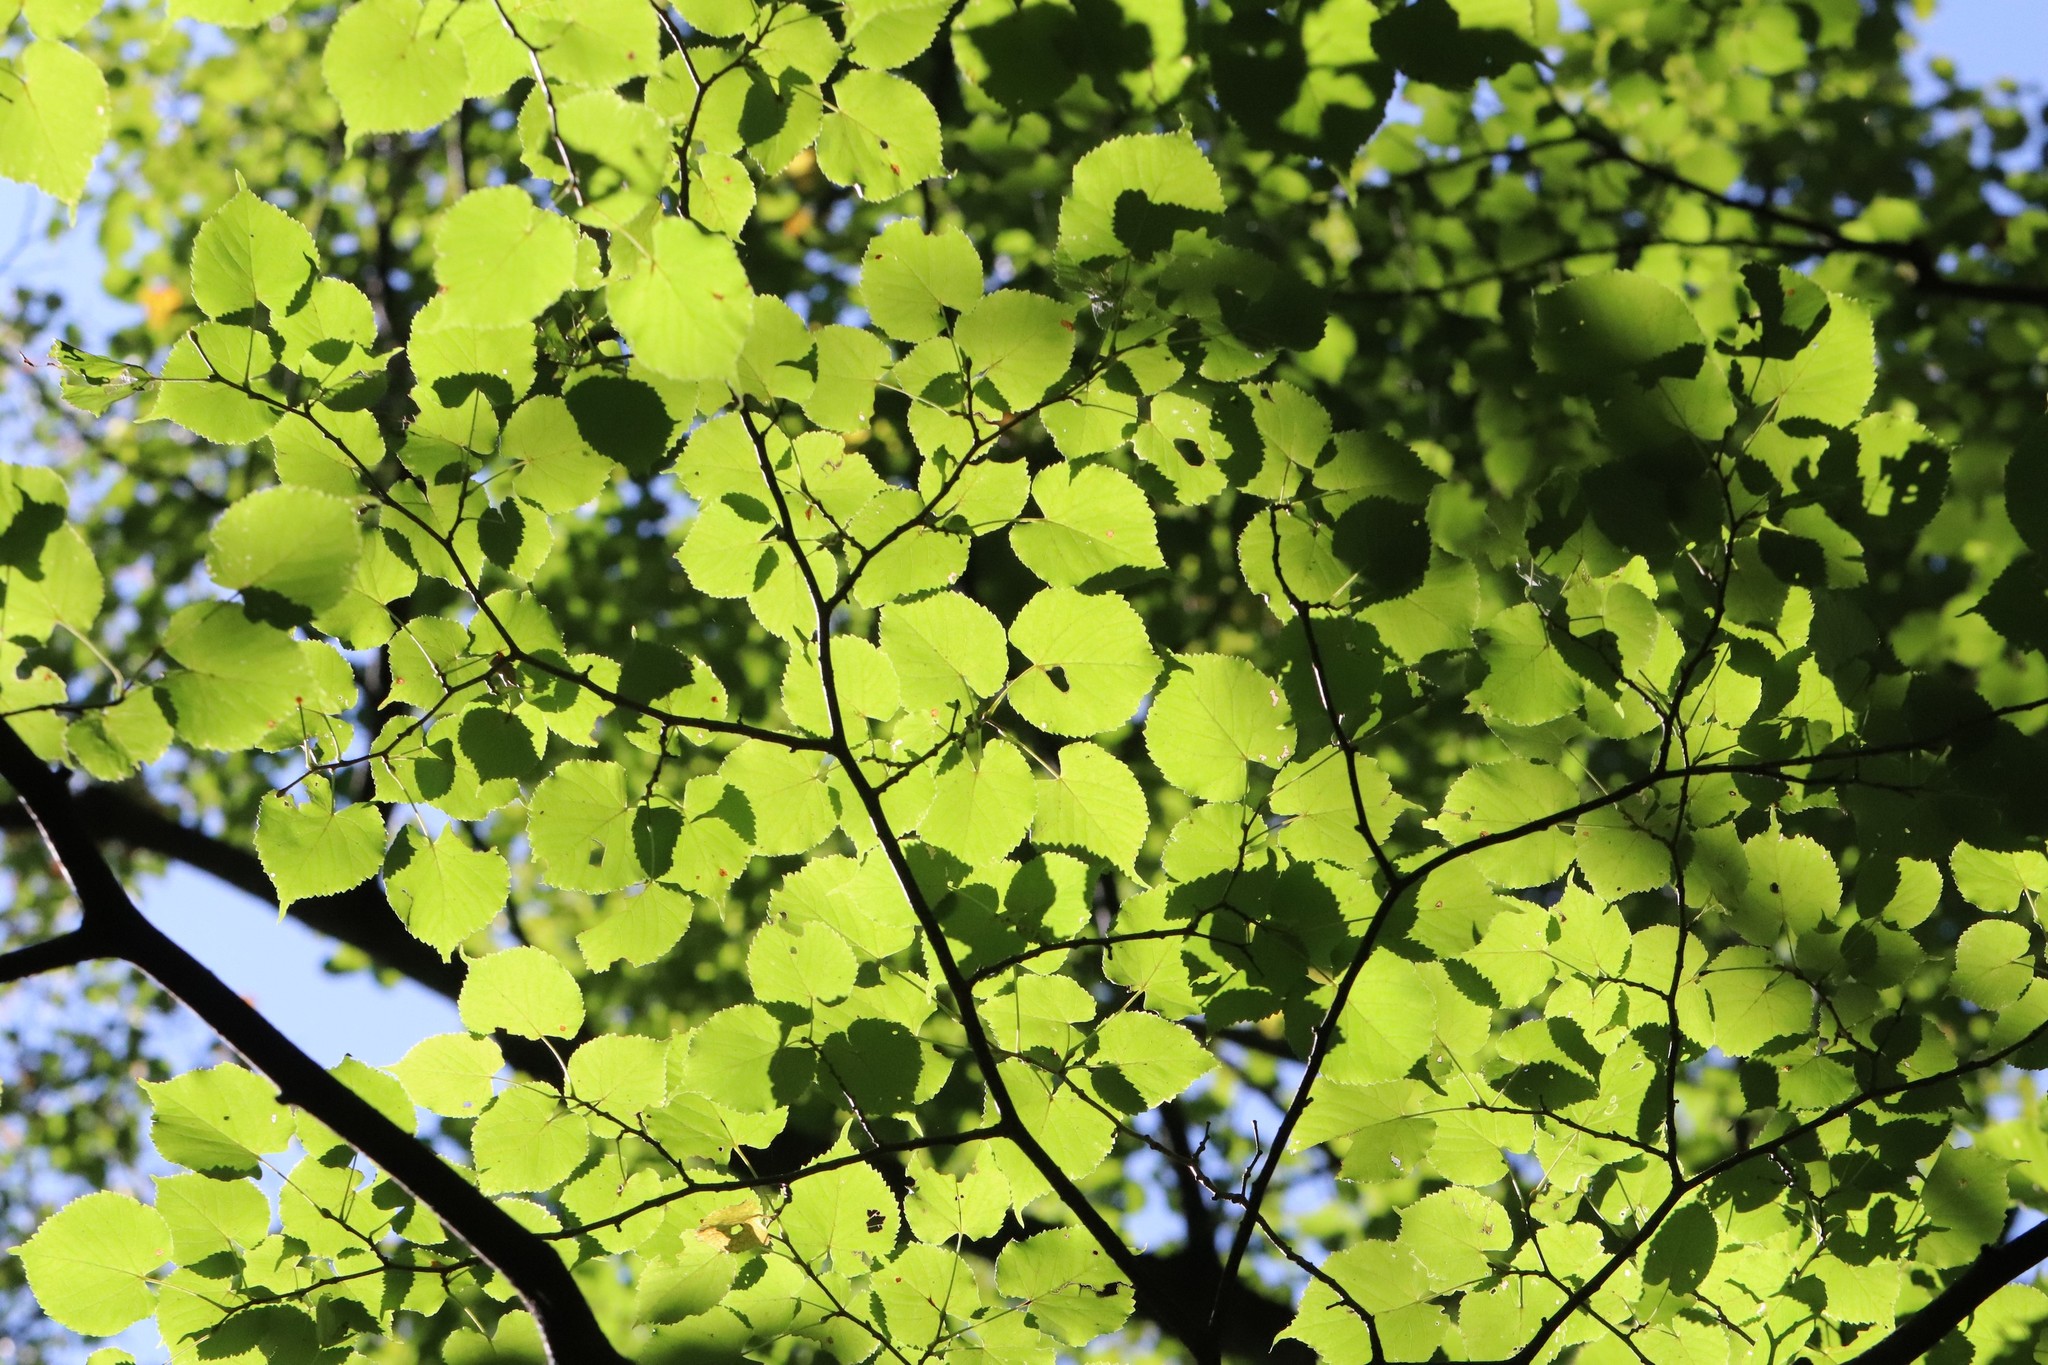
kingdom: Plantae
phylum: Tracheophyta
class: Magnoliopsida
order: Malvales
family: Malvaceae
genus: Tilia
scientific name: Tilia amurensis
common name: Amur lime
